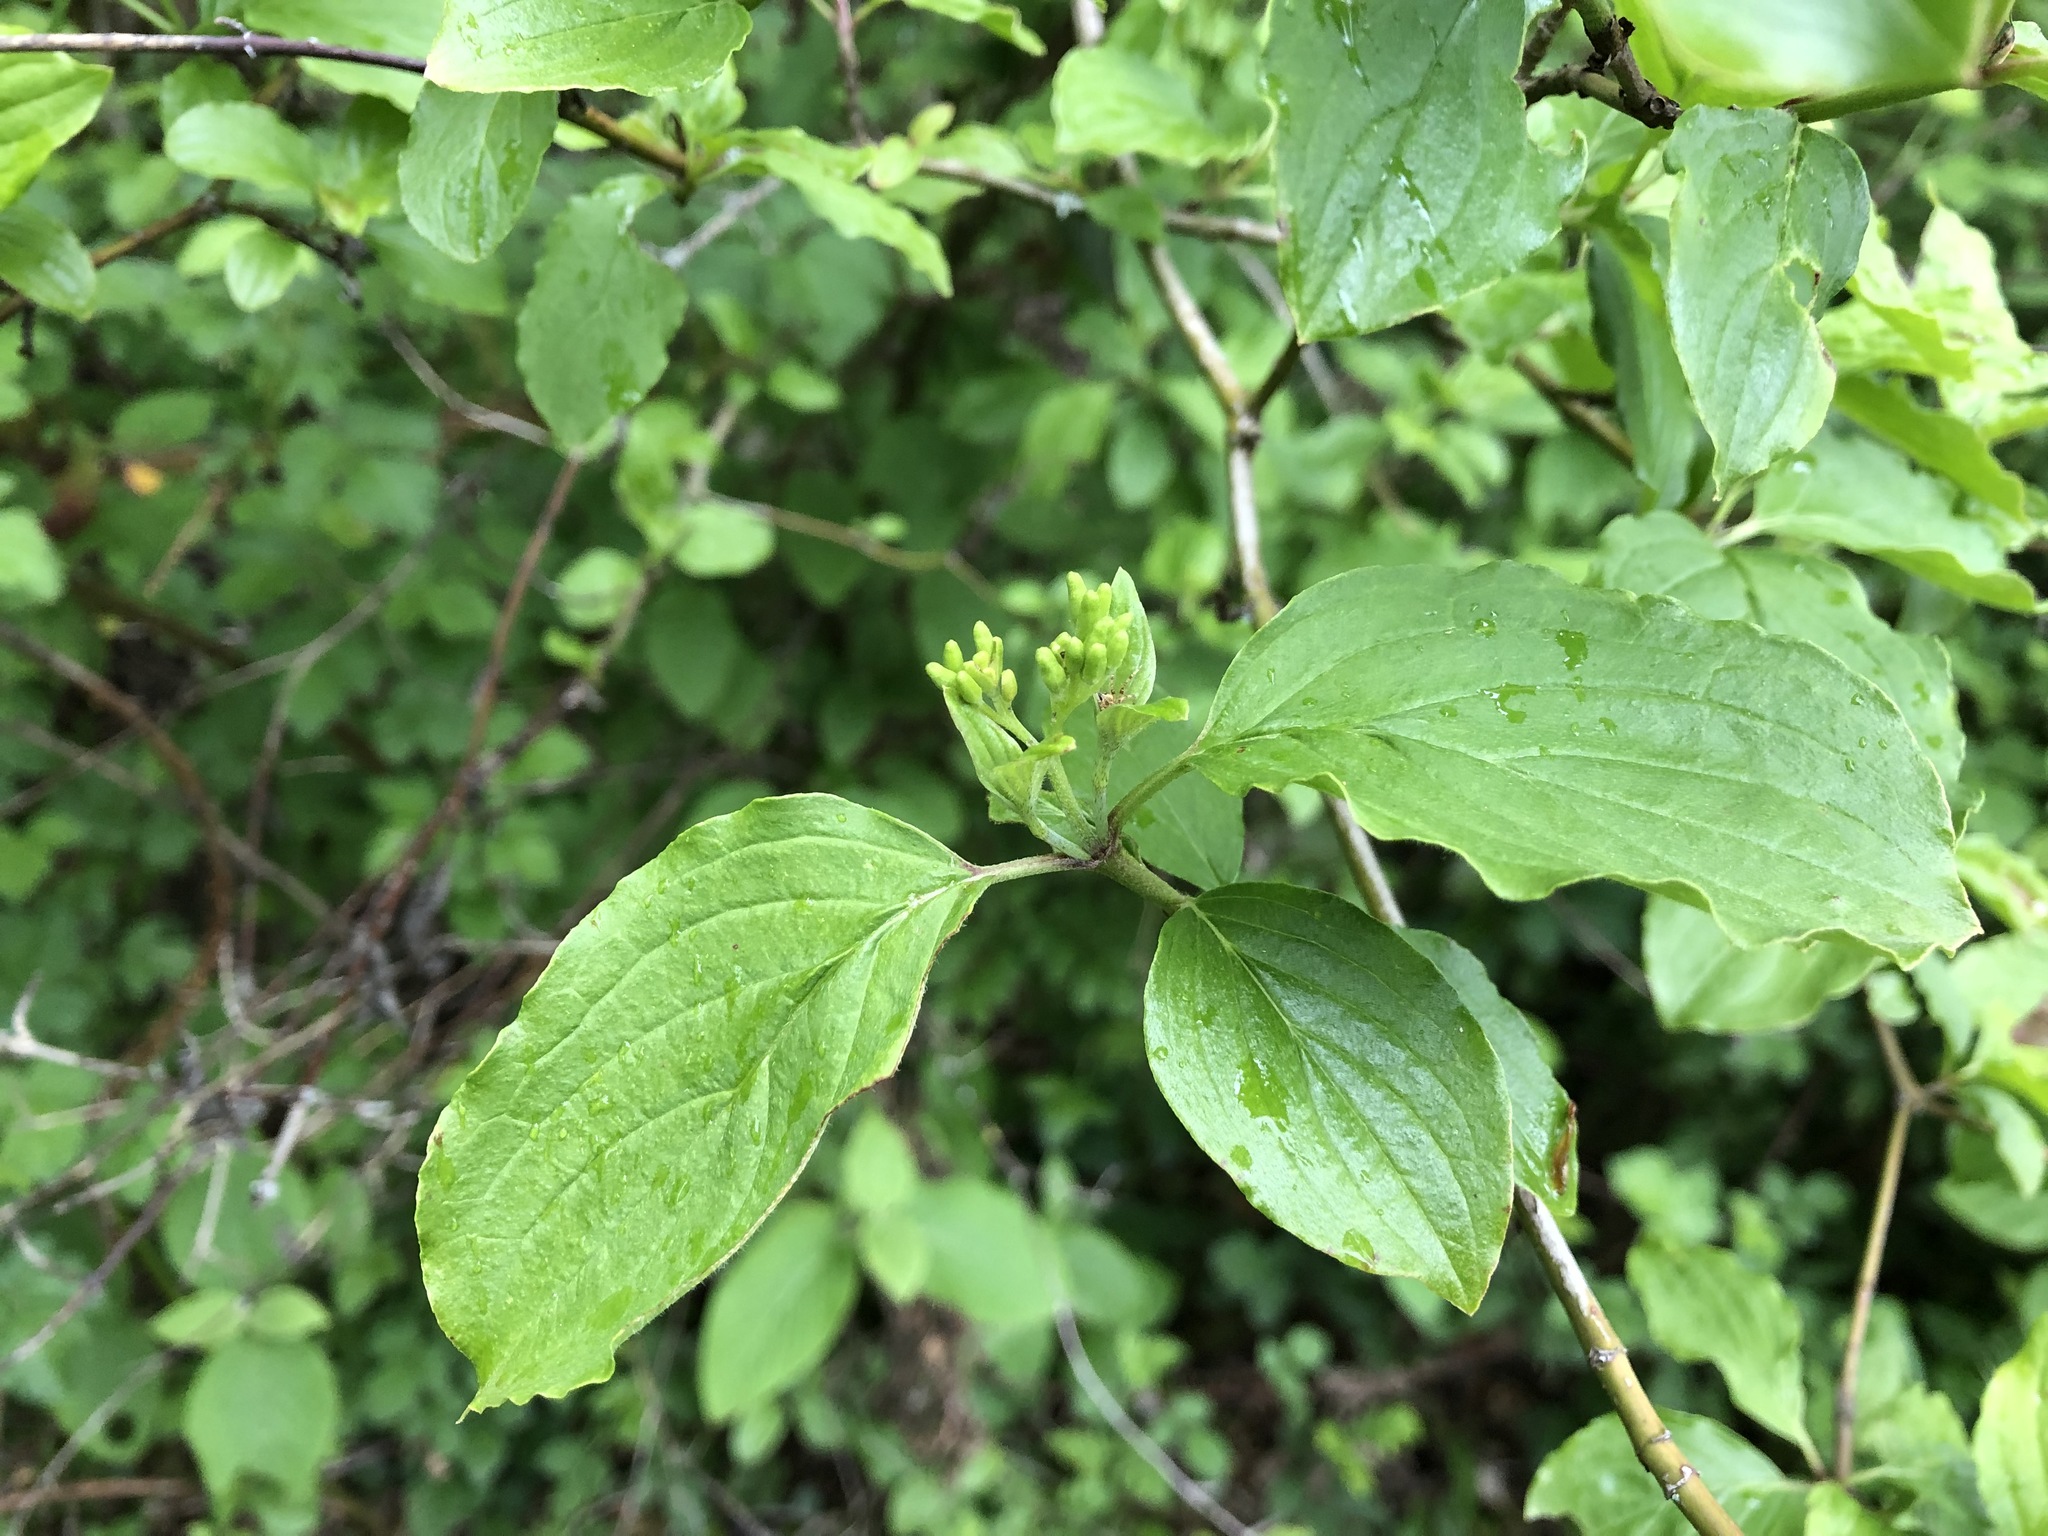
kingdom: Plantae
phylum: Tracheophyta
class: Magnoliopsida
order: Cornales
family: Cornaceae
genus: Cornus
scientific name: Cornus sanguinea
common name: Dogwood
